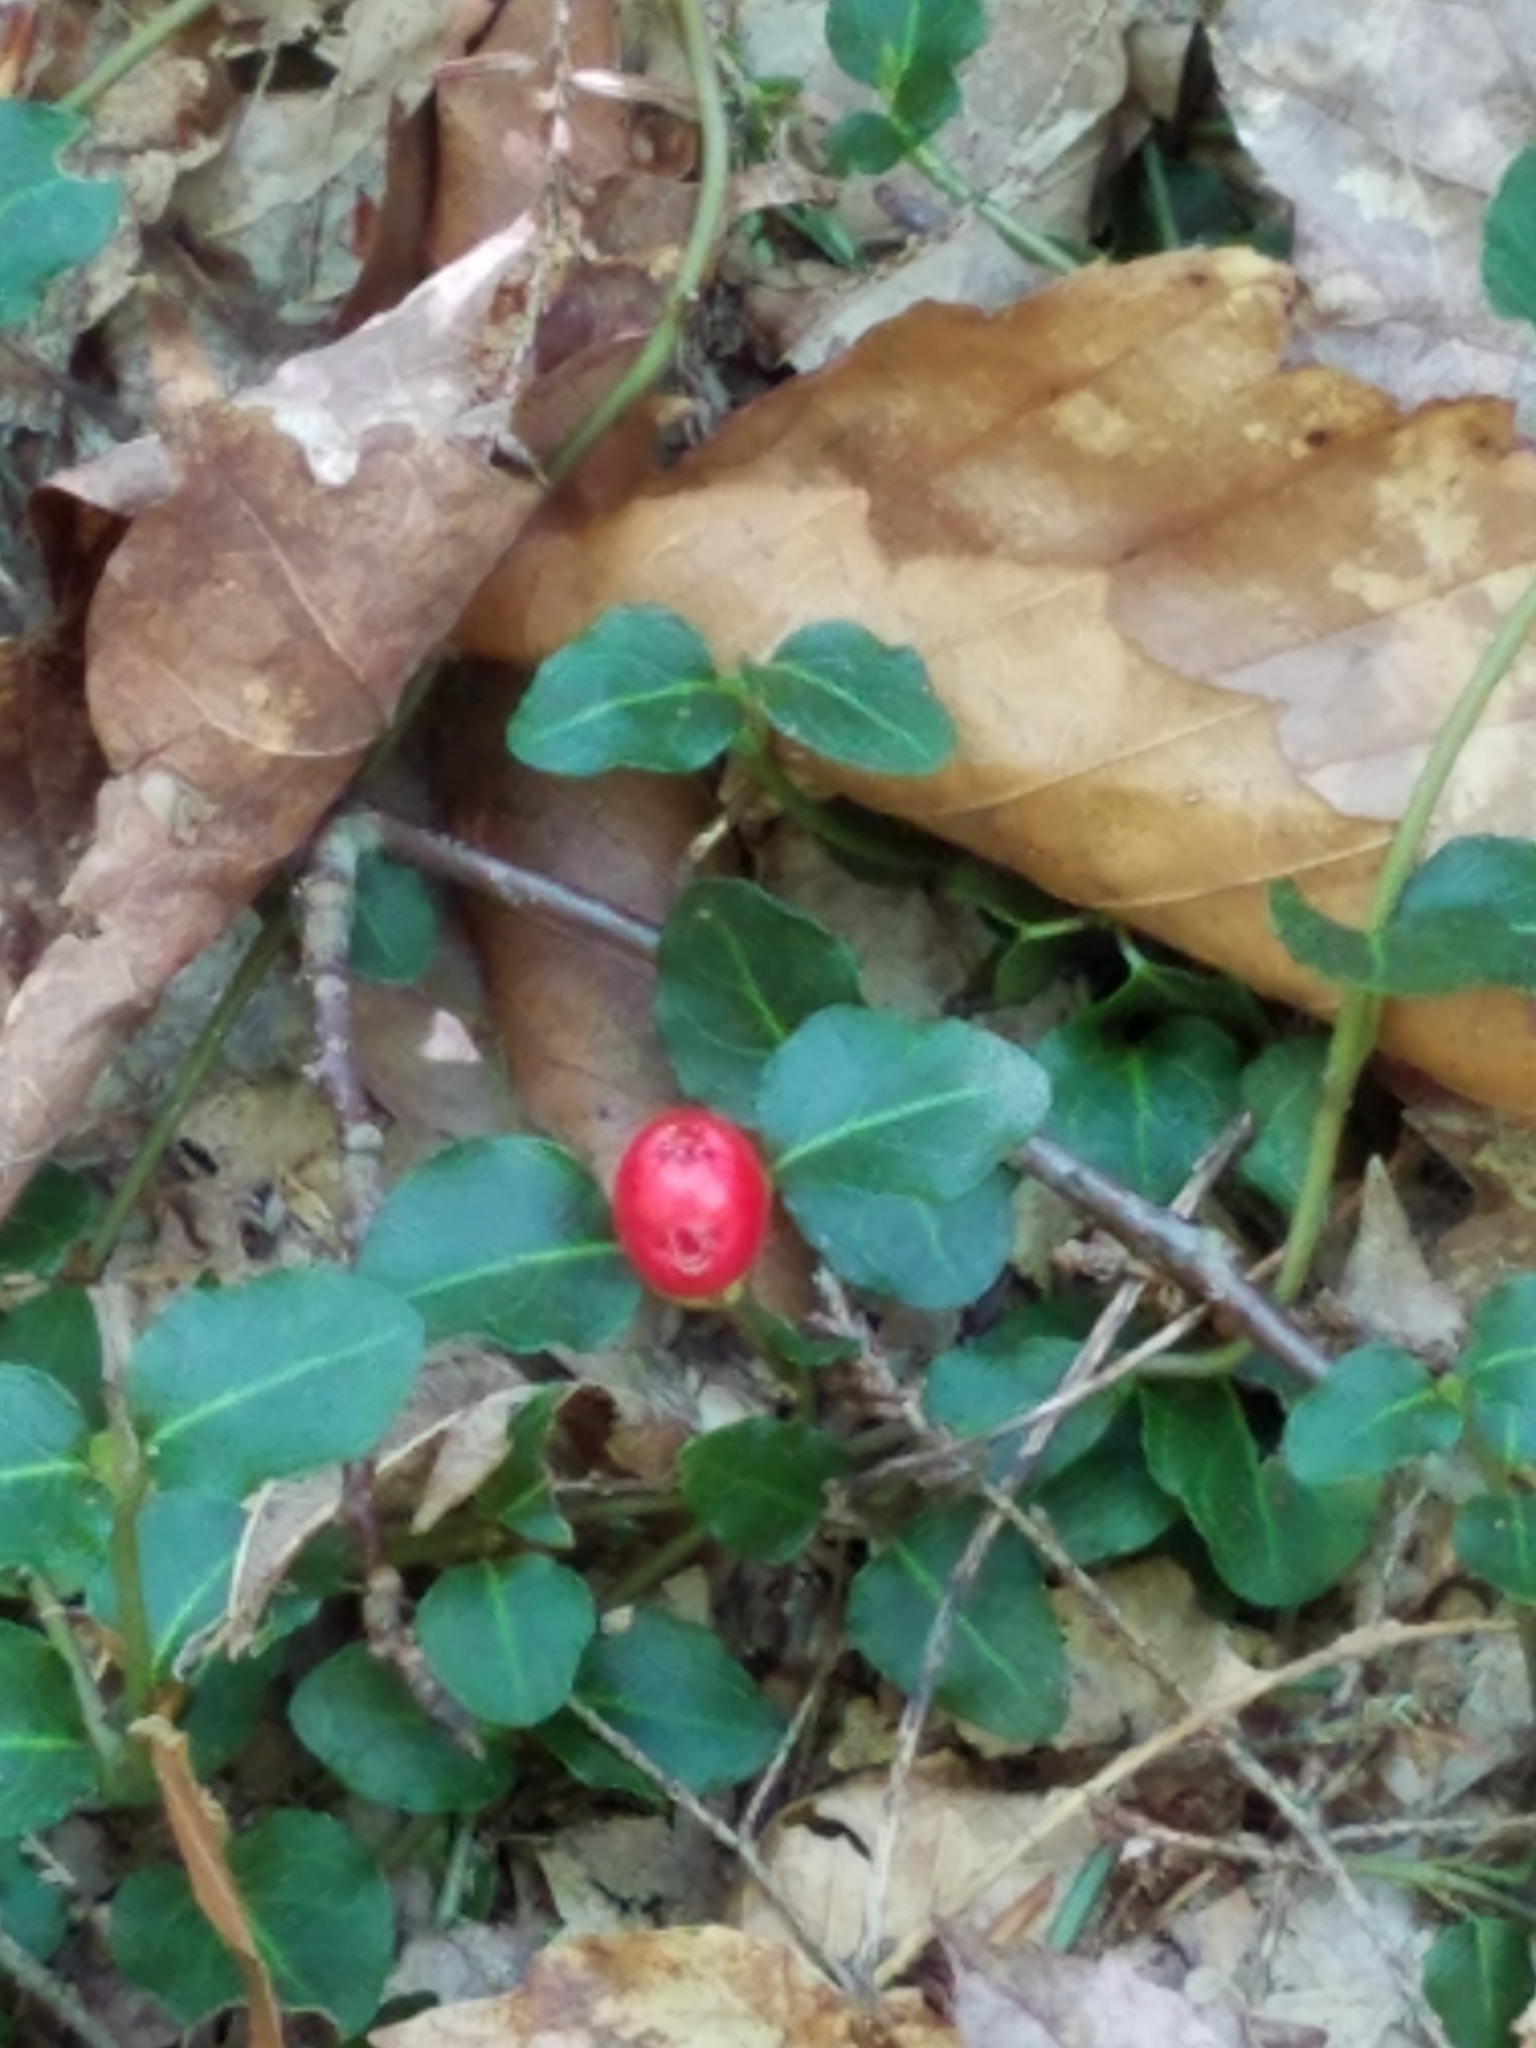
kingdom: Plantae
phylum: Tracheophyta
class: Magnoliopsida
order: Gentianales
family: Rubiaceae
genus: Mitchella
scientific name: Mitchella repens
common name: Partridge-berry
